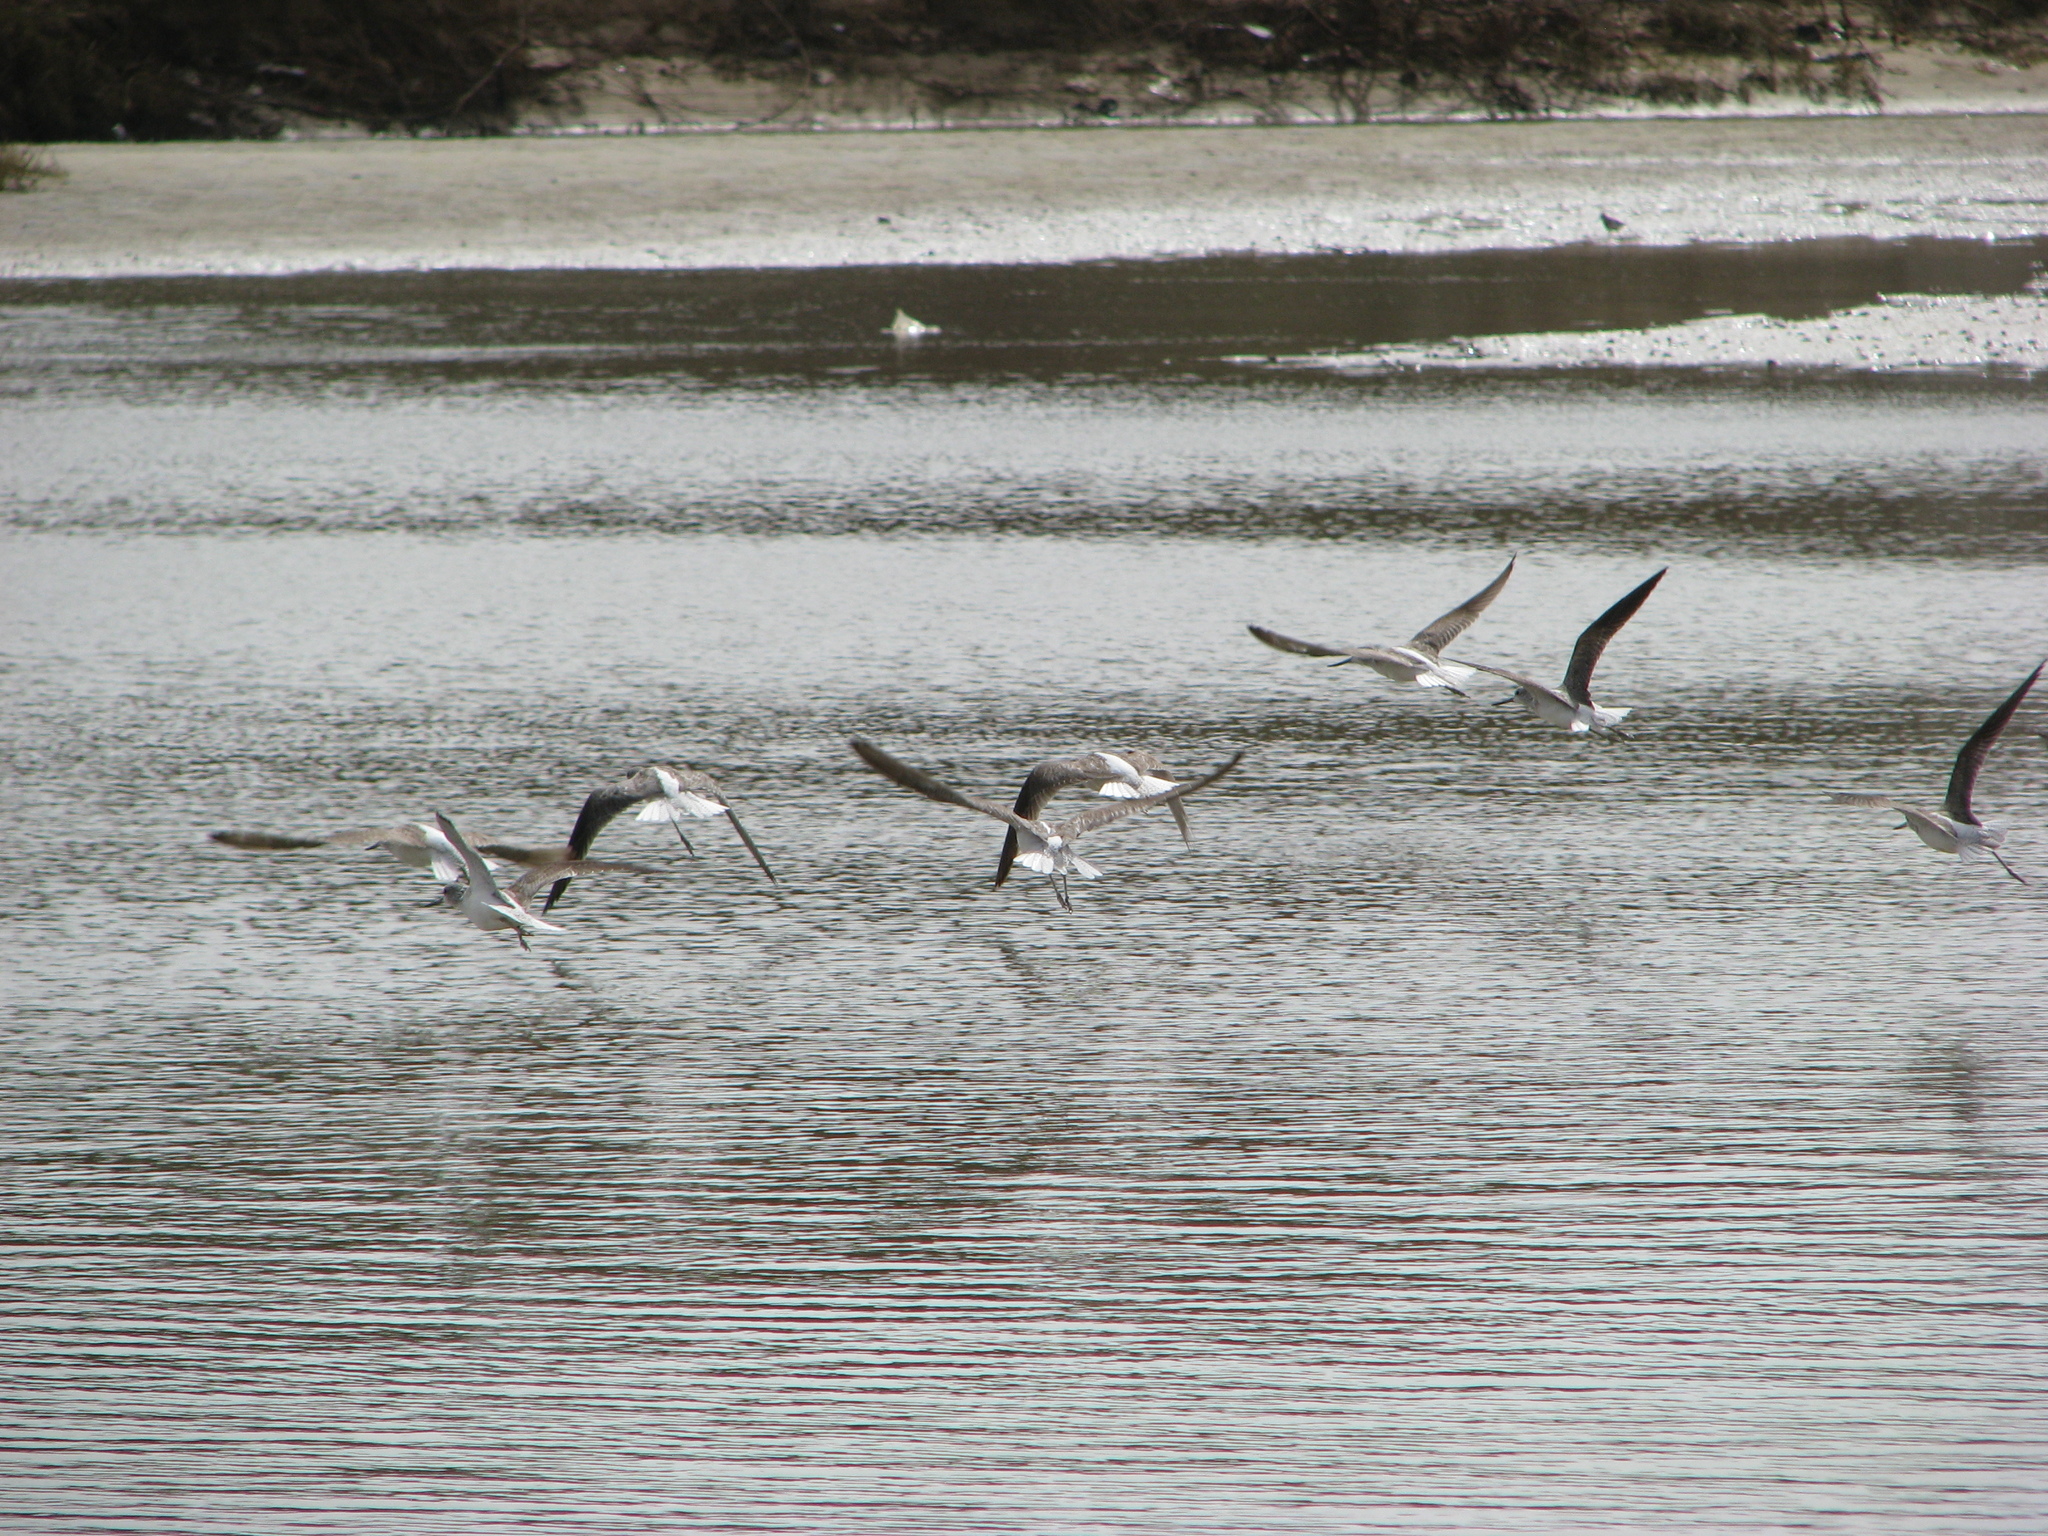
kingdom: Animalia
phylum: Chordata
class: Aves
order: Charadriiformes
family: Scolopacidae
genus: Tringa
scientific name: Tringa nebularia
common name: Common greenshank
